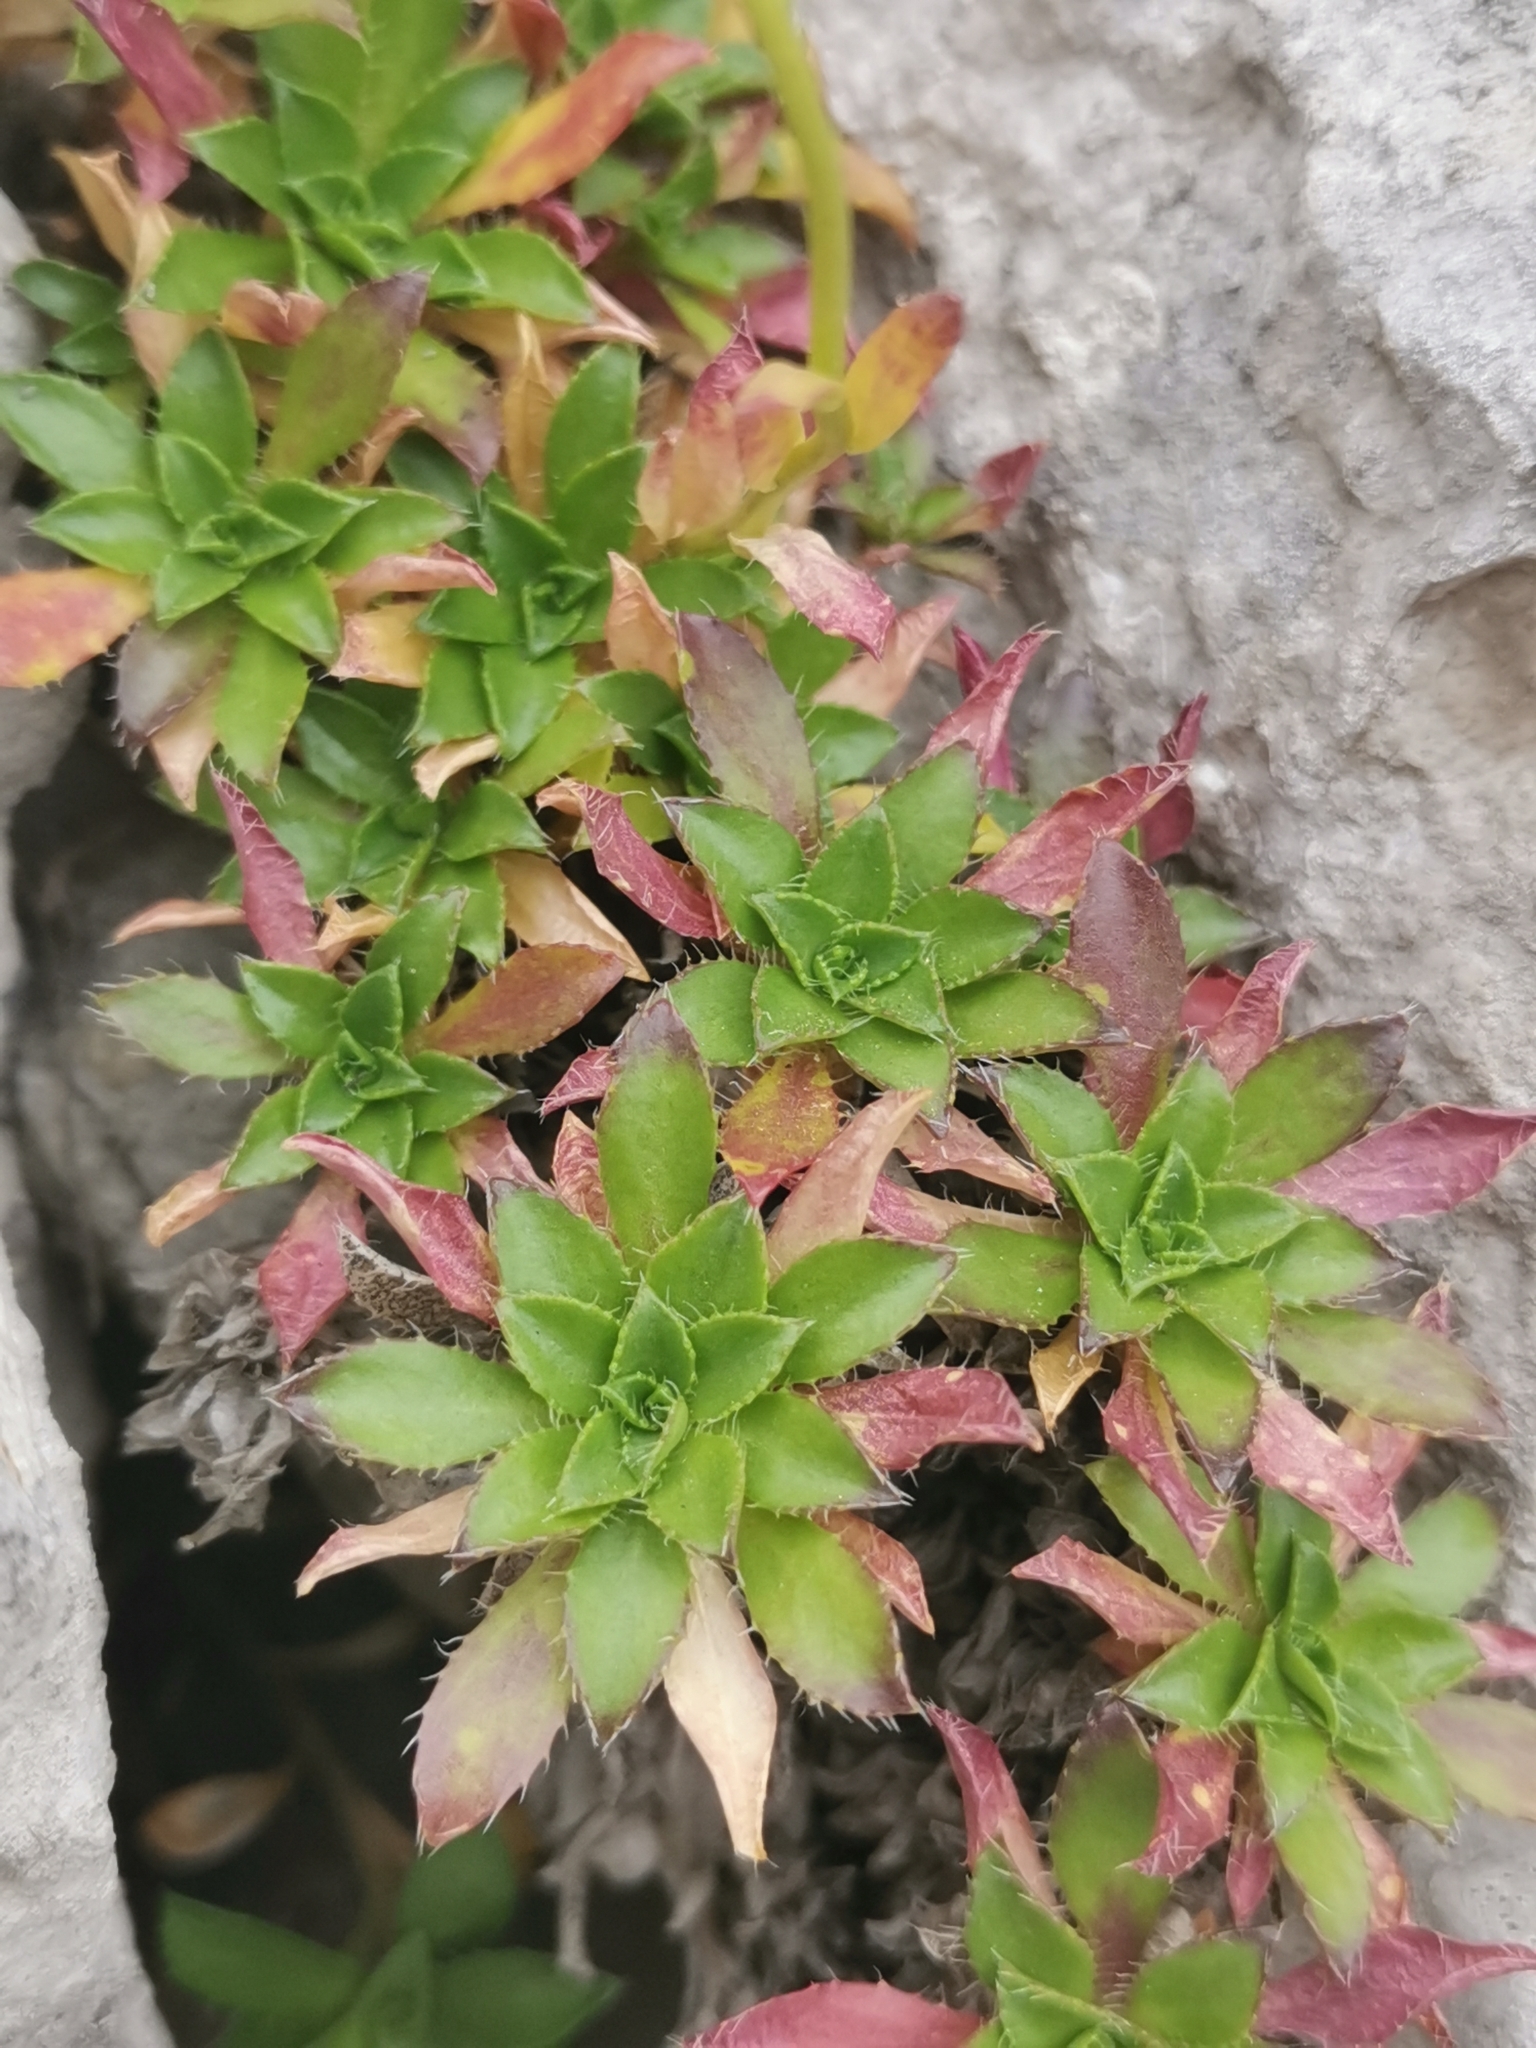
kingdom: Plantae
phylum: Tracheophyta
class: Magnoliopsida
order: Brassicales
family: Brassicaceae
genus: Arabis
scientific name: Arabis scopoliana
